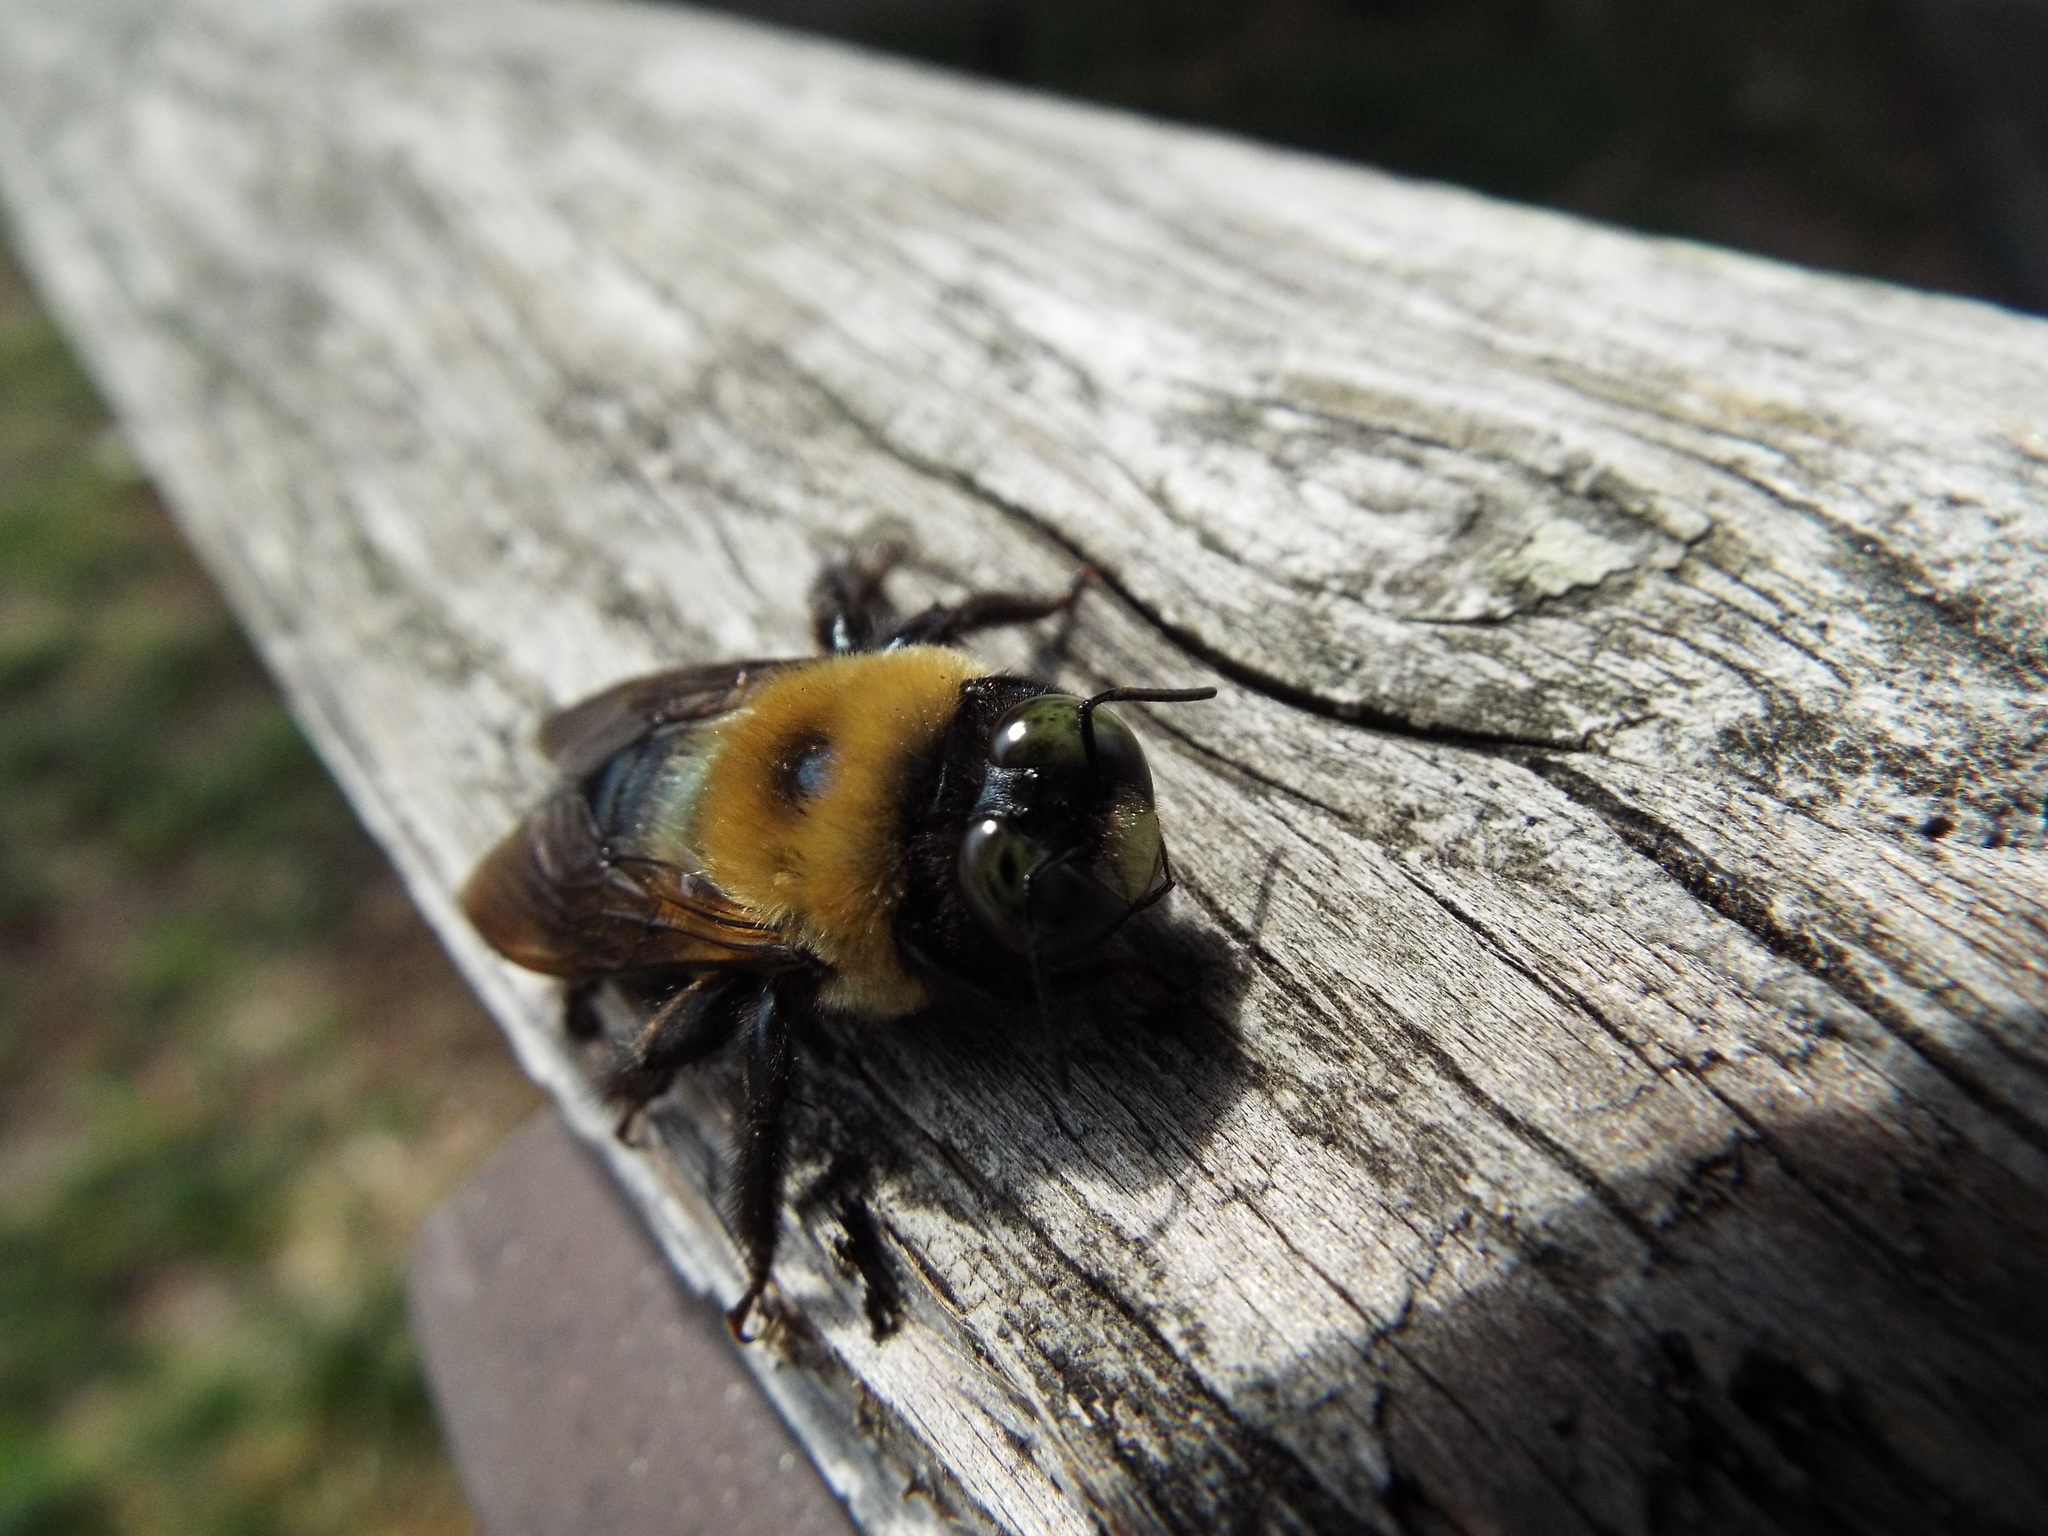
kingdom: Animalia
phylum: Arthropoda
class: Insecta
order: Hymenoptera
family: Apidae
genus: Xylocopa
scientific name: Xylocopa virginica
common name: Carpenter bee
